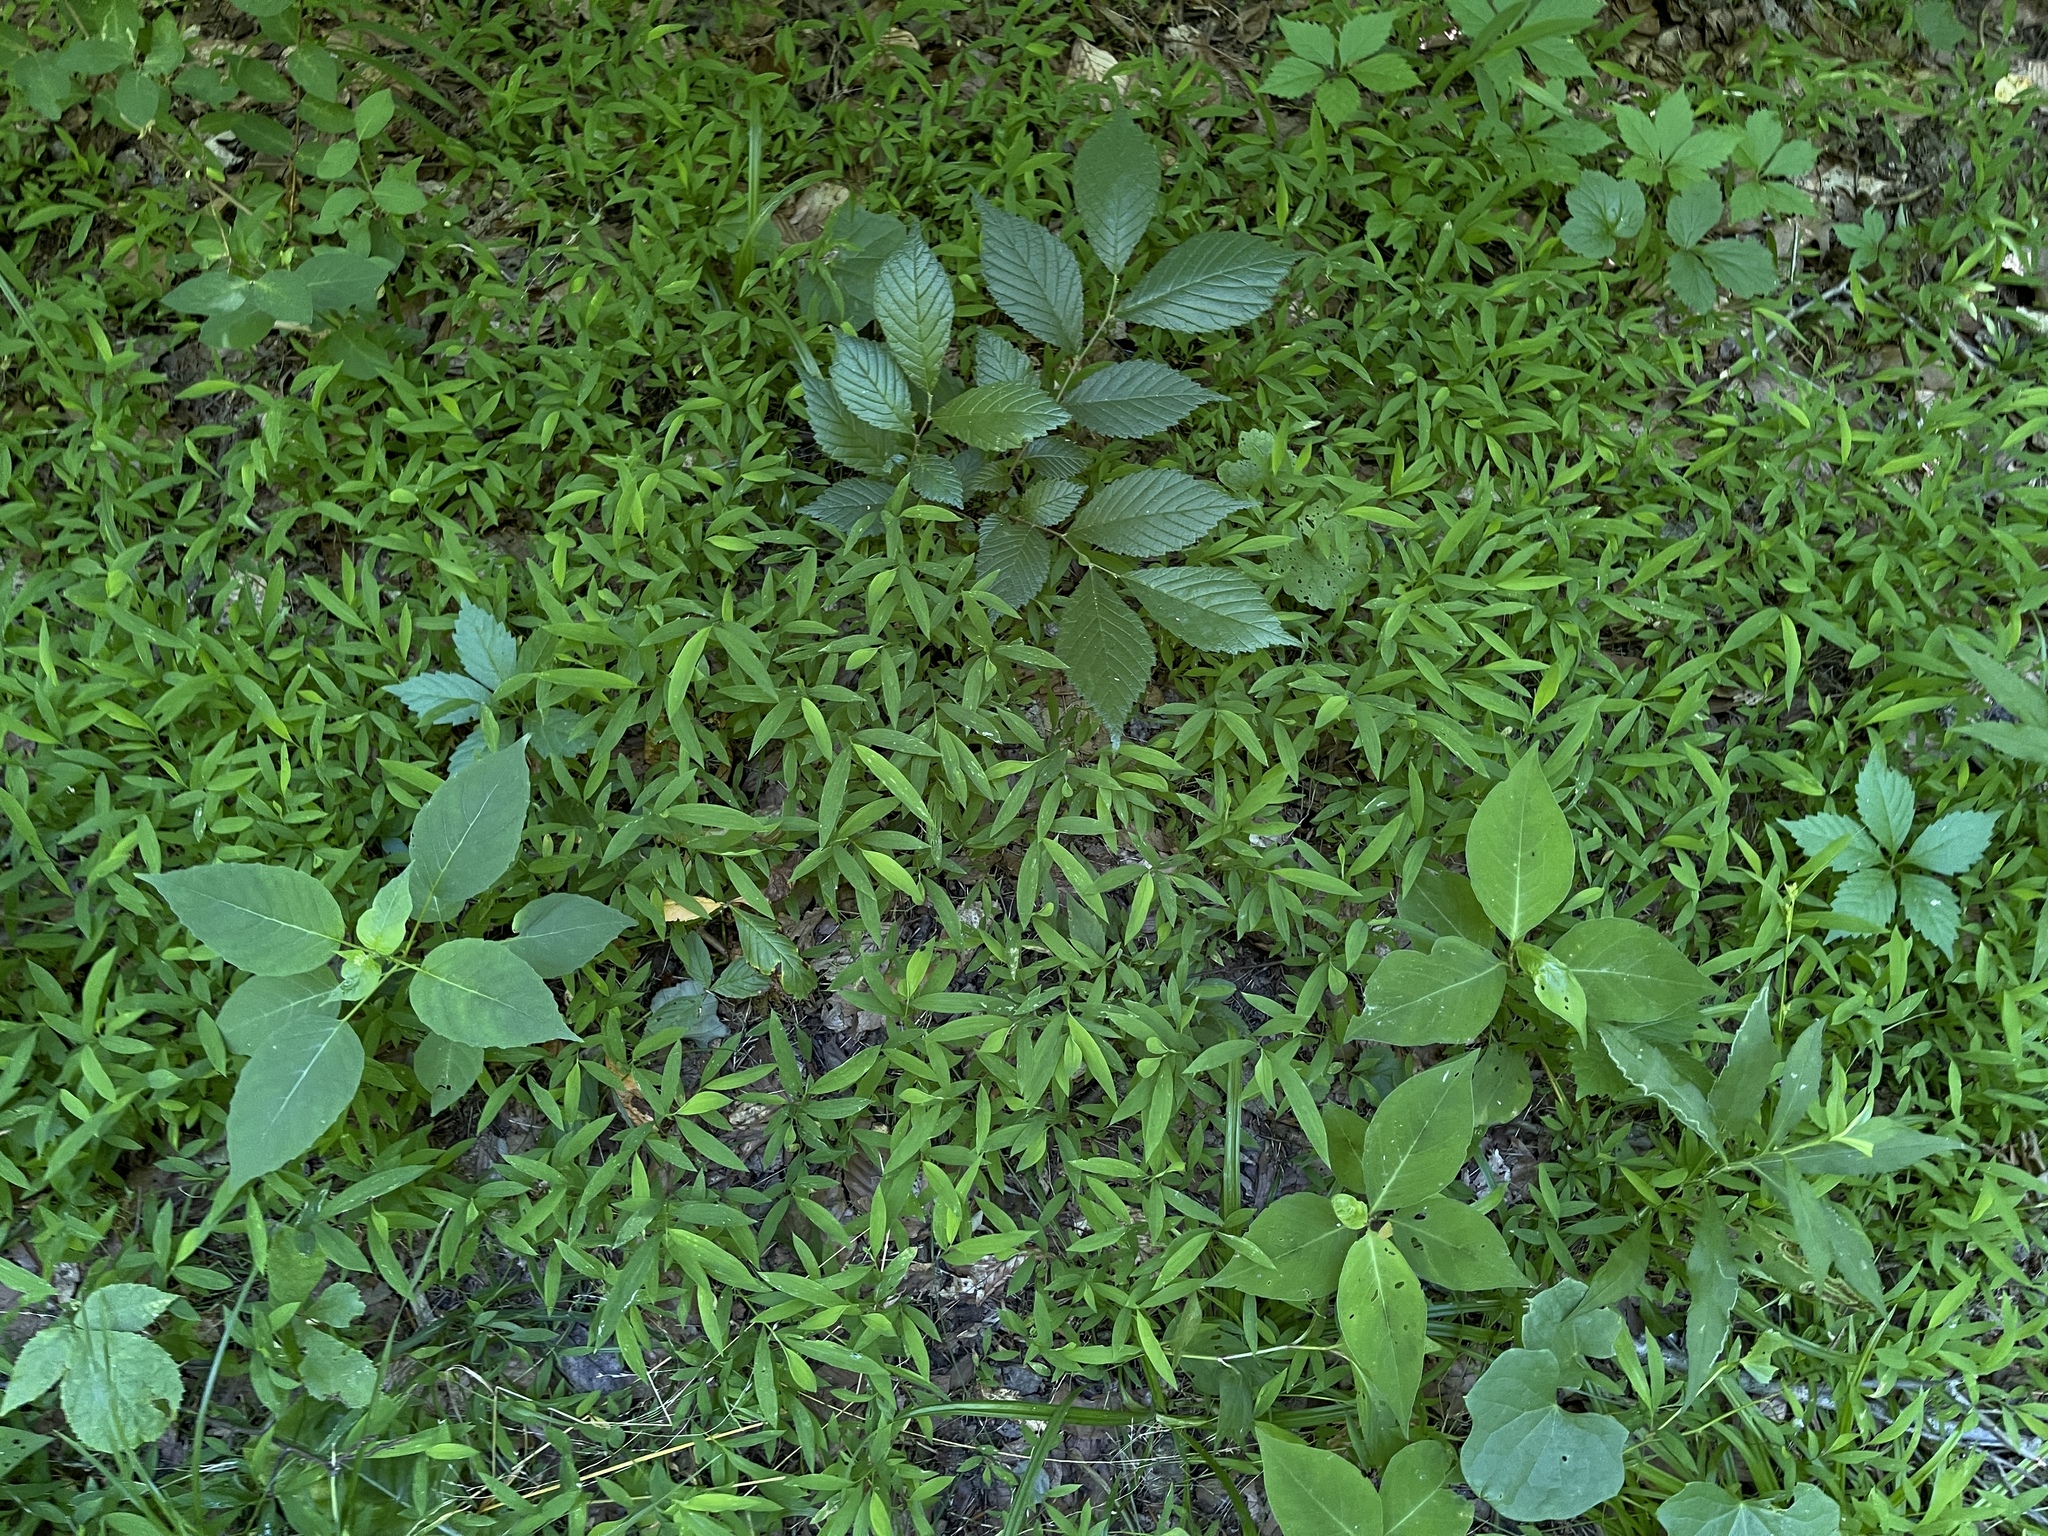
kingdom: Plantae
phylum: Tracheophyta
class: Liliopsida
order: Poales
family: Poaceae
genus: Microstegium
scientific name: Microstegium vimineum
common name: Japanese stiltgrass
